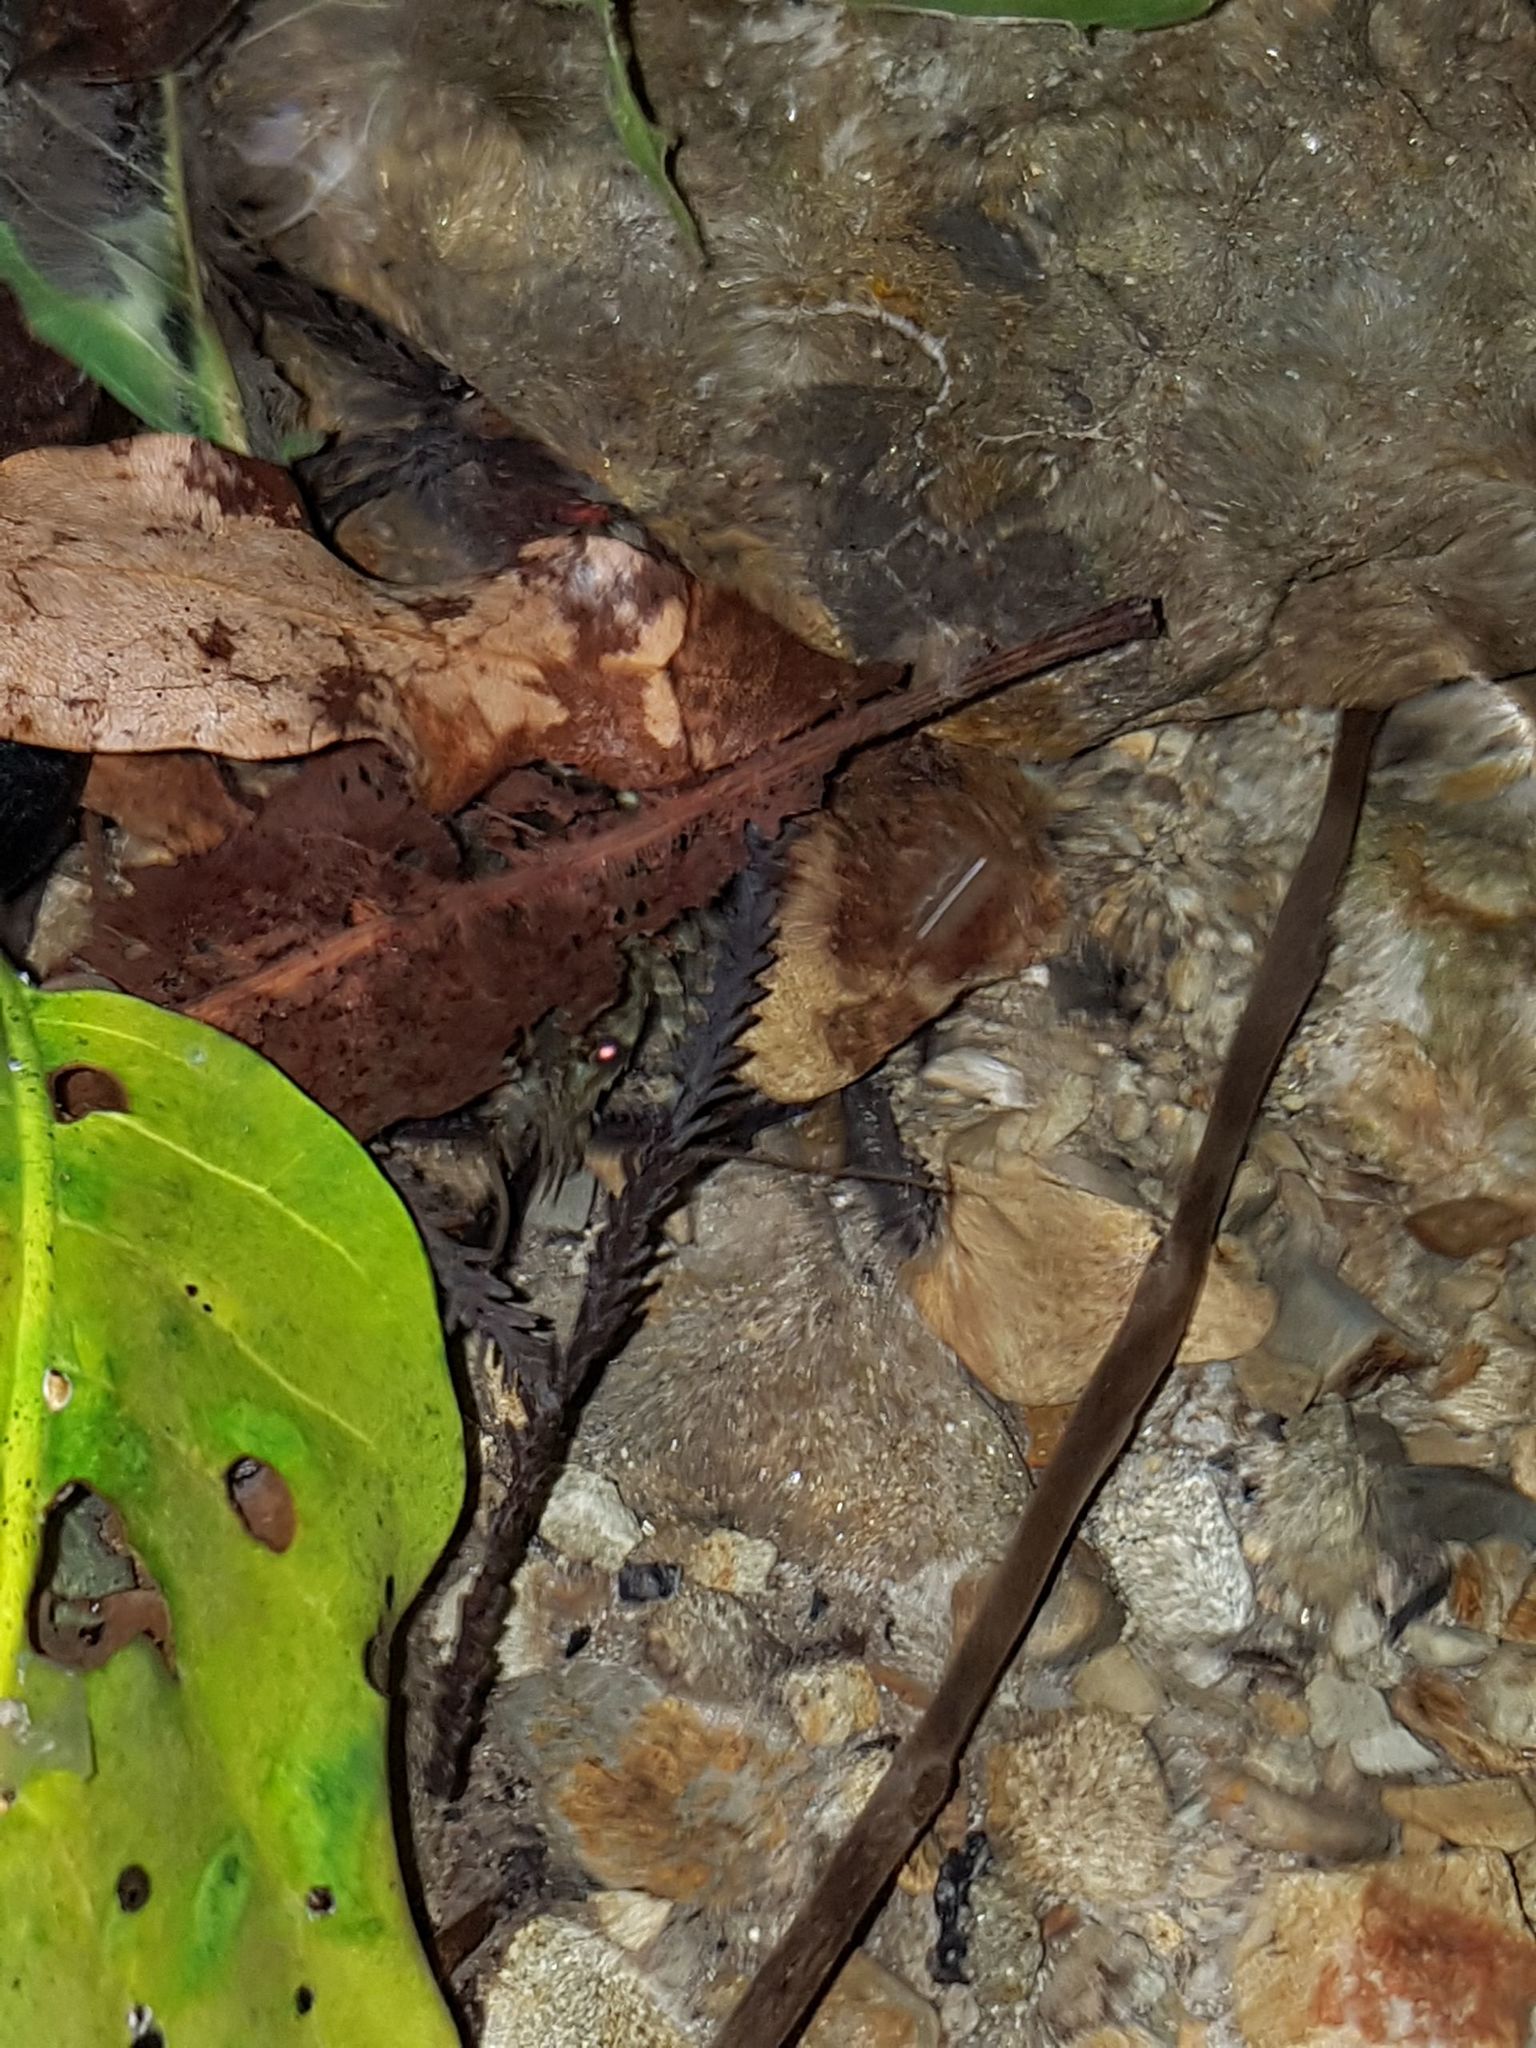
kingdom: Animalia
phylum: Arthropoda
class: Malacostraca
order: Decapoda
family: Parastacidae
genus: Paranephrops
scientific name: Paranephrops planifrons
